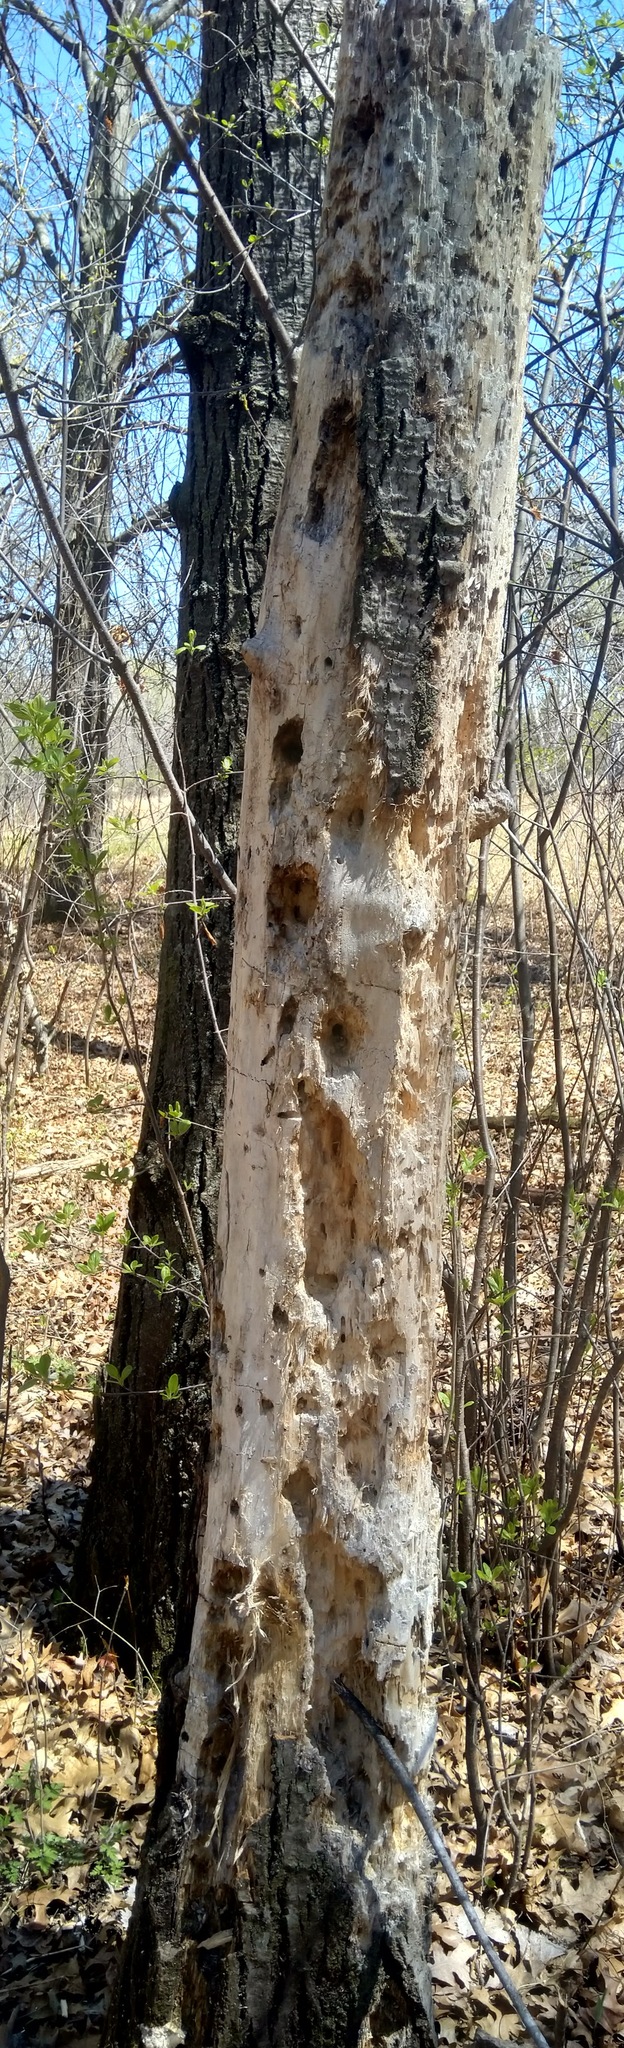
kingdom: Animalia
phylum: Chordata
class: Aves
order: Piciformes
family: Picidae
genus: Dryocopus
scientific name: Dryocopus pileatus
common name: Pileated woodpecker
